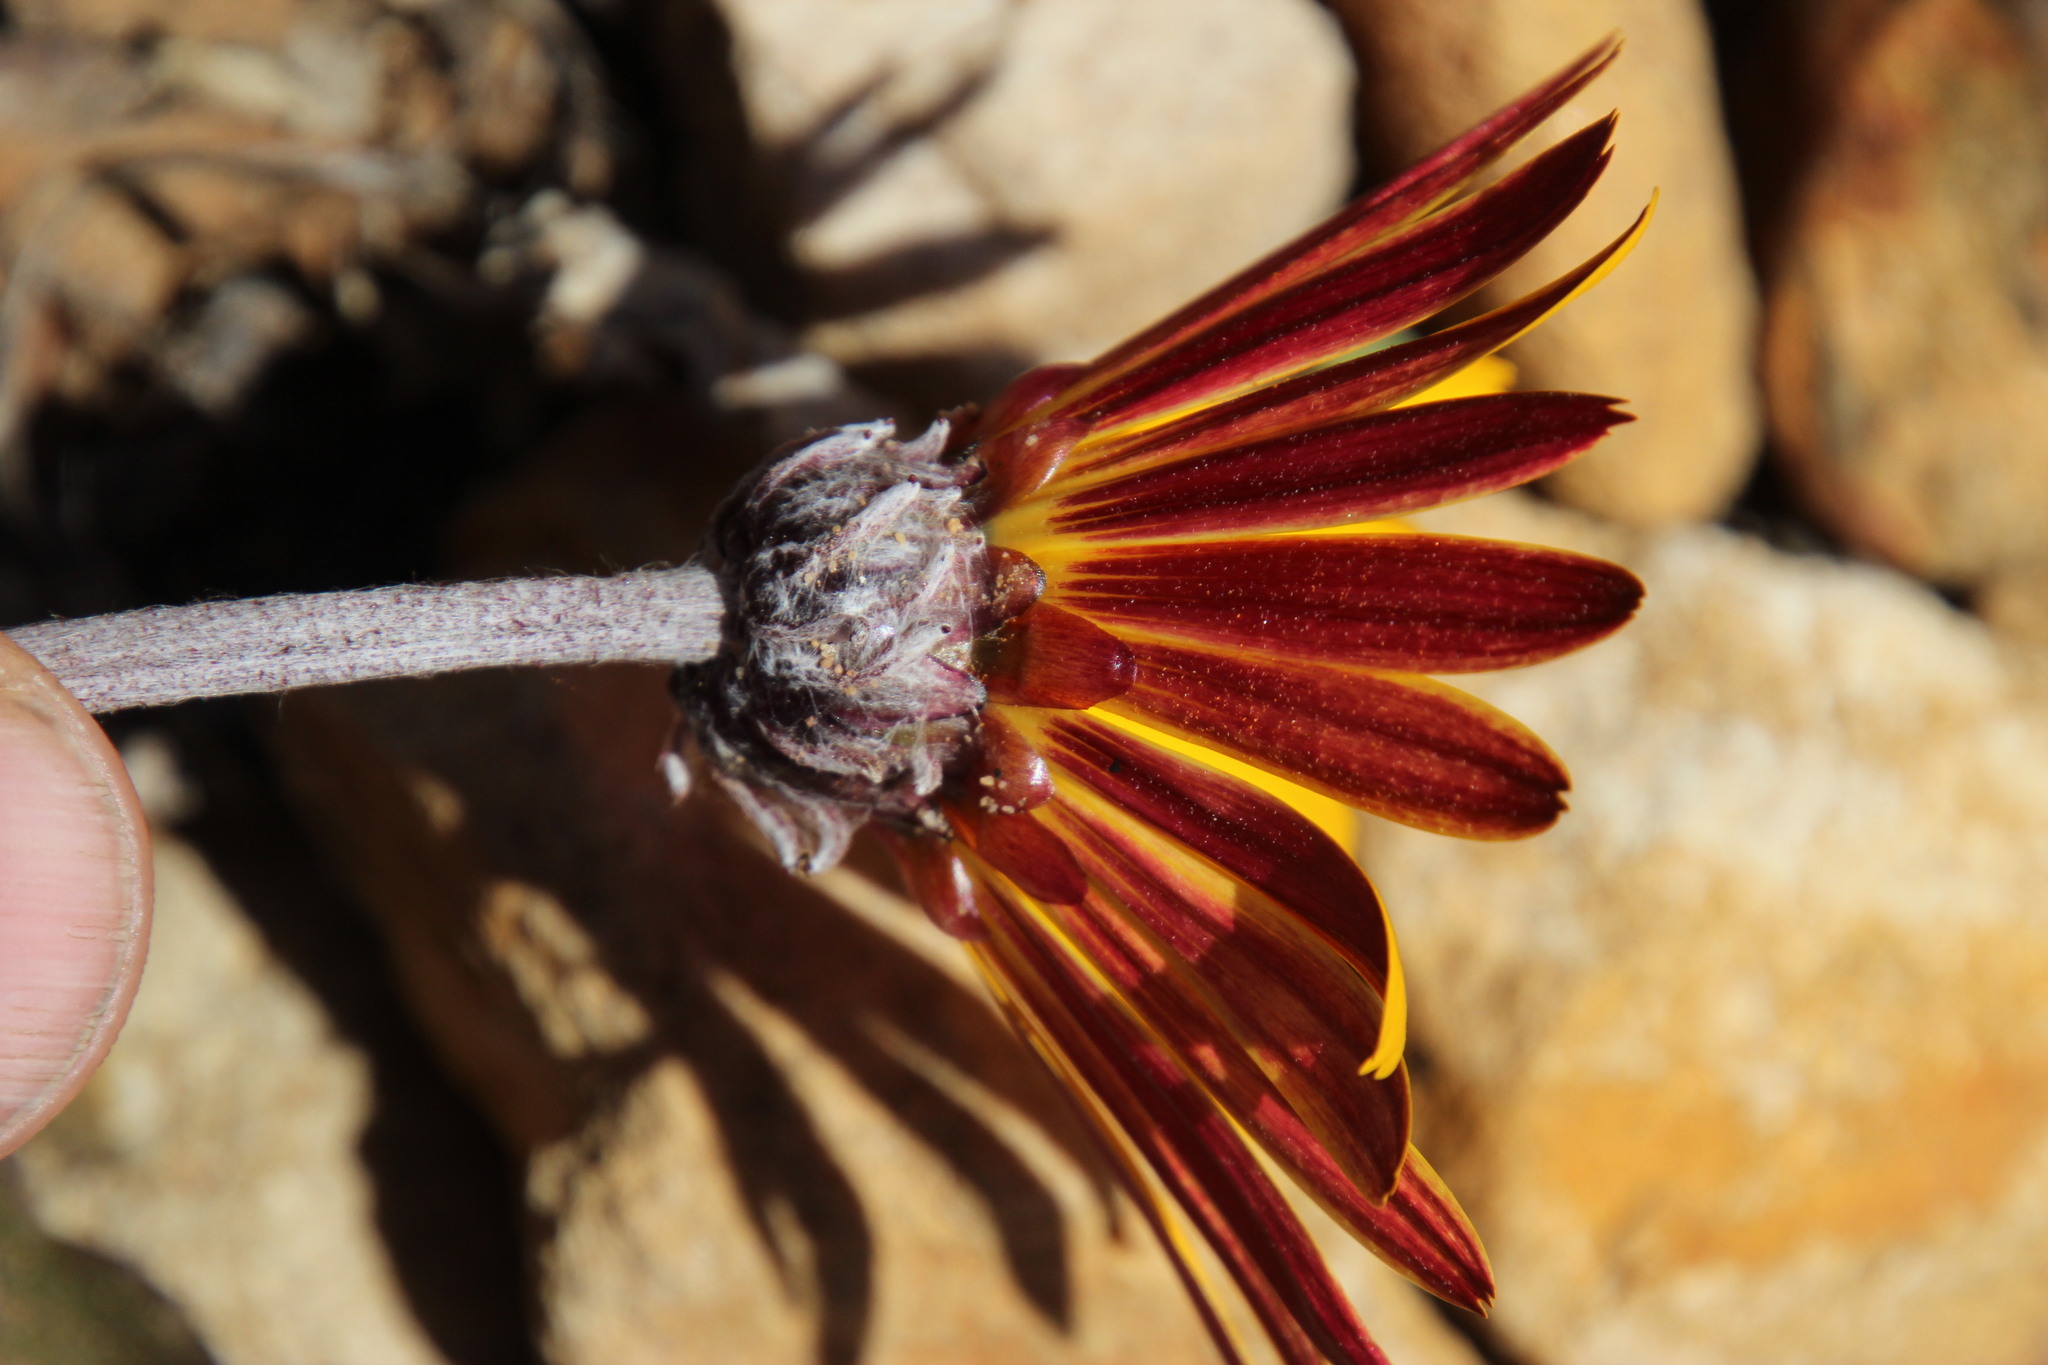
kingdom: Plantae
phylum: Tracheophyta
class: Magnoliopsida
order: Asterales
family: Asteraceae
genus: Arctotis
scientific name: Arctotis acaulis
